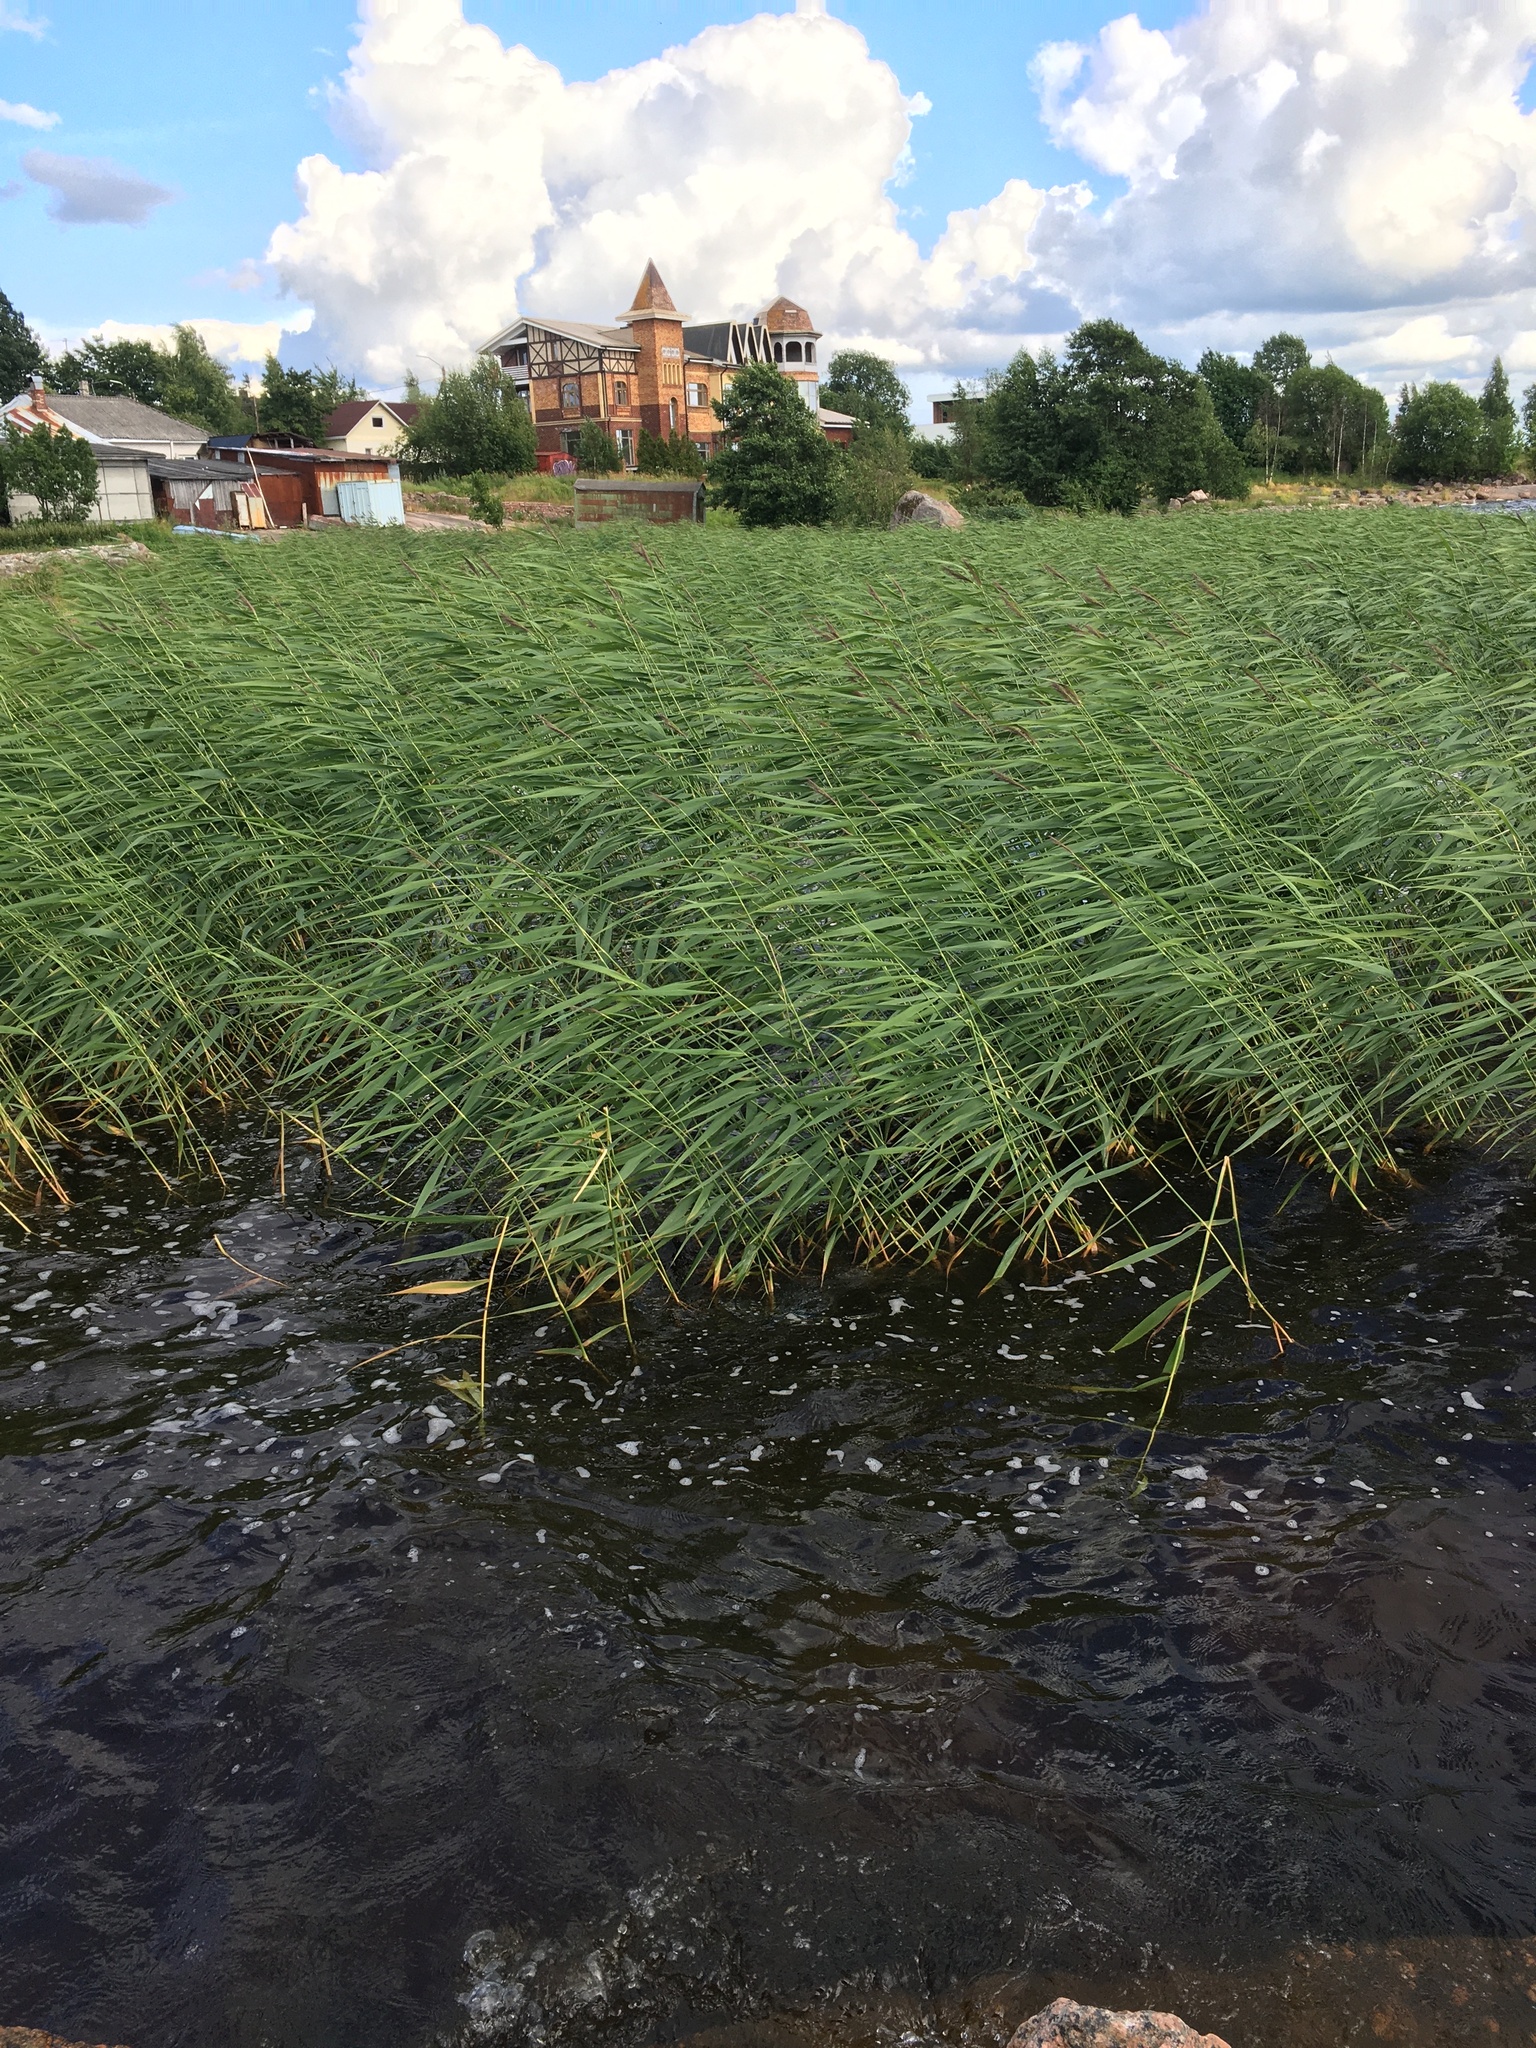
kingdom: Plantae
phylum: Tracheophyta
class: Liliopsida
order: Poales
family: Poaceae
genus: Phragmites
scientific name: Phragmites australis
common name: Common reed
